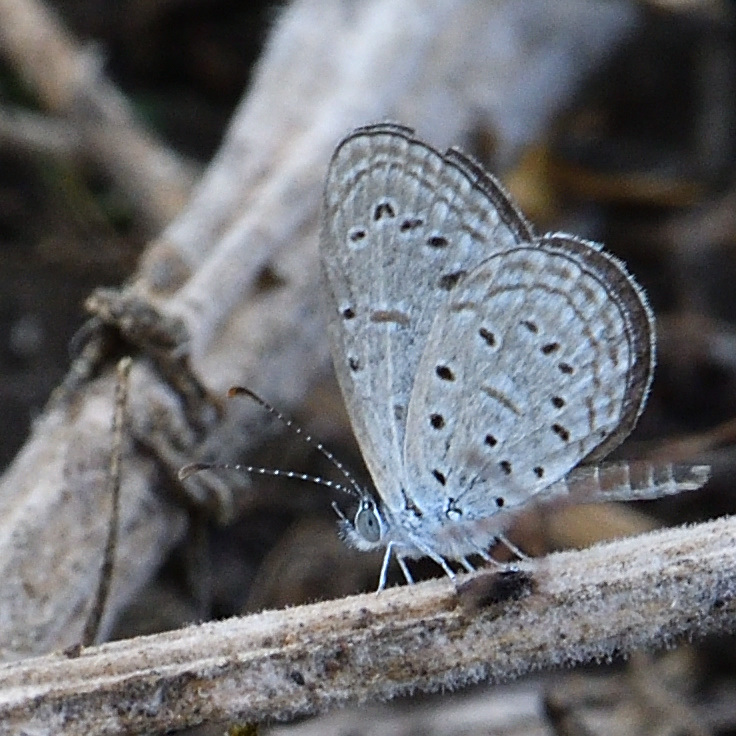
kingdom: Animalia
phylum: Arthropoda
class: Insecta
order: Lepidoptera
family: Lycaenidae
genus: Zizula
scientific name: Zizula hylax
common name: Gaika blue
